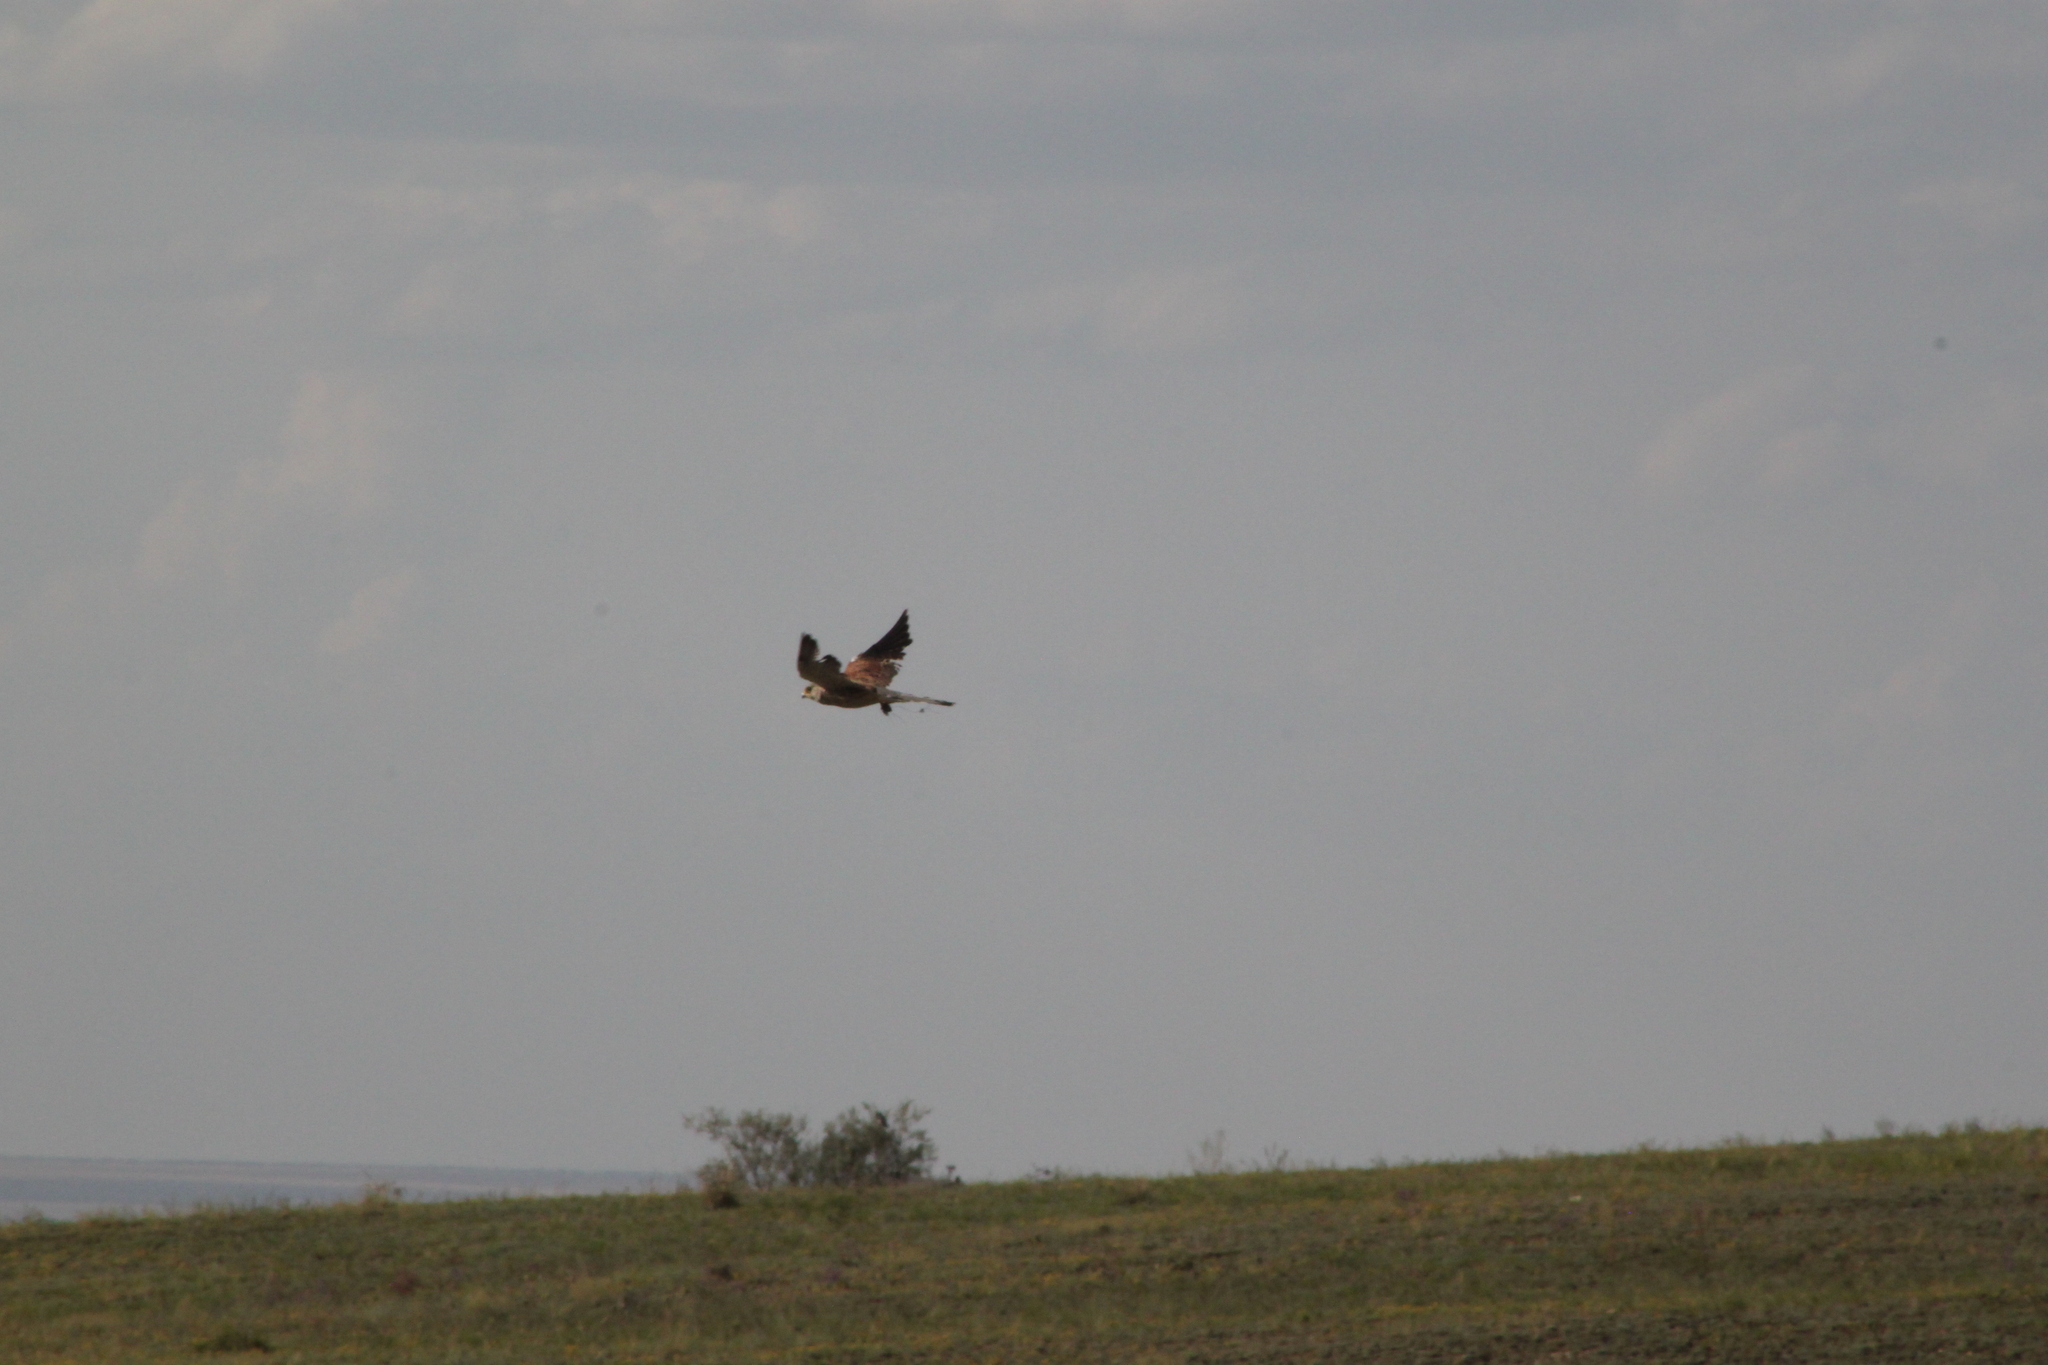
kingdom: Animalia
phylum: Chordata
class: Aves
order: Falconiformes
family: Falconidae
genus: Falco
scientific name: Falco tinnunculus
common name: Common kestrel
